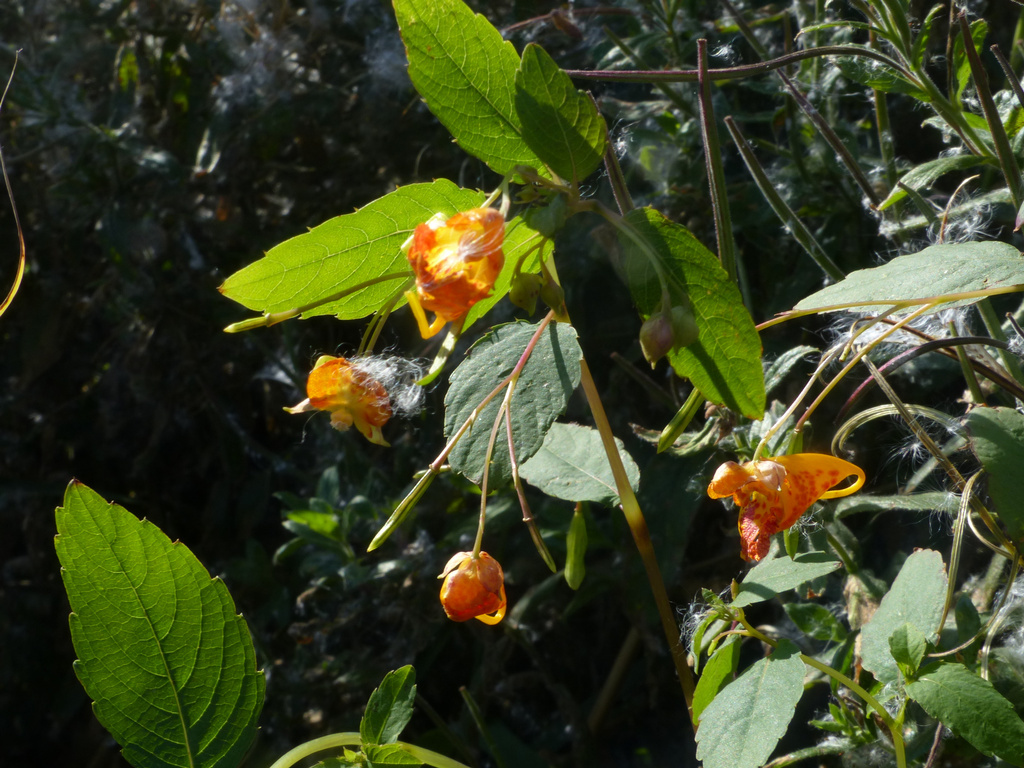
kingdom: Plantae
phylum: Tracheophyta
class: Magnoliopsida
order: Ericales
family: Balsaminaceae
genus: Impatiens
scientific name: Impatiens capensis
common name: Orange balsam
